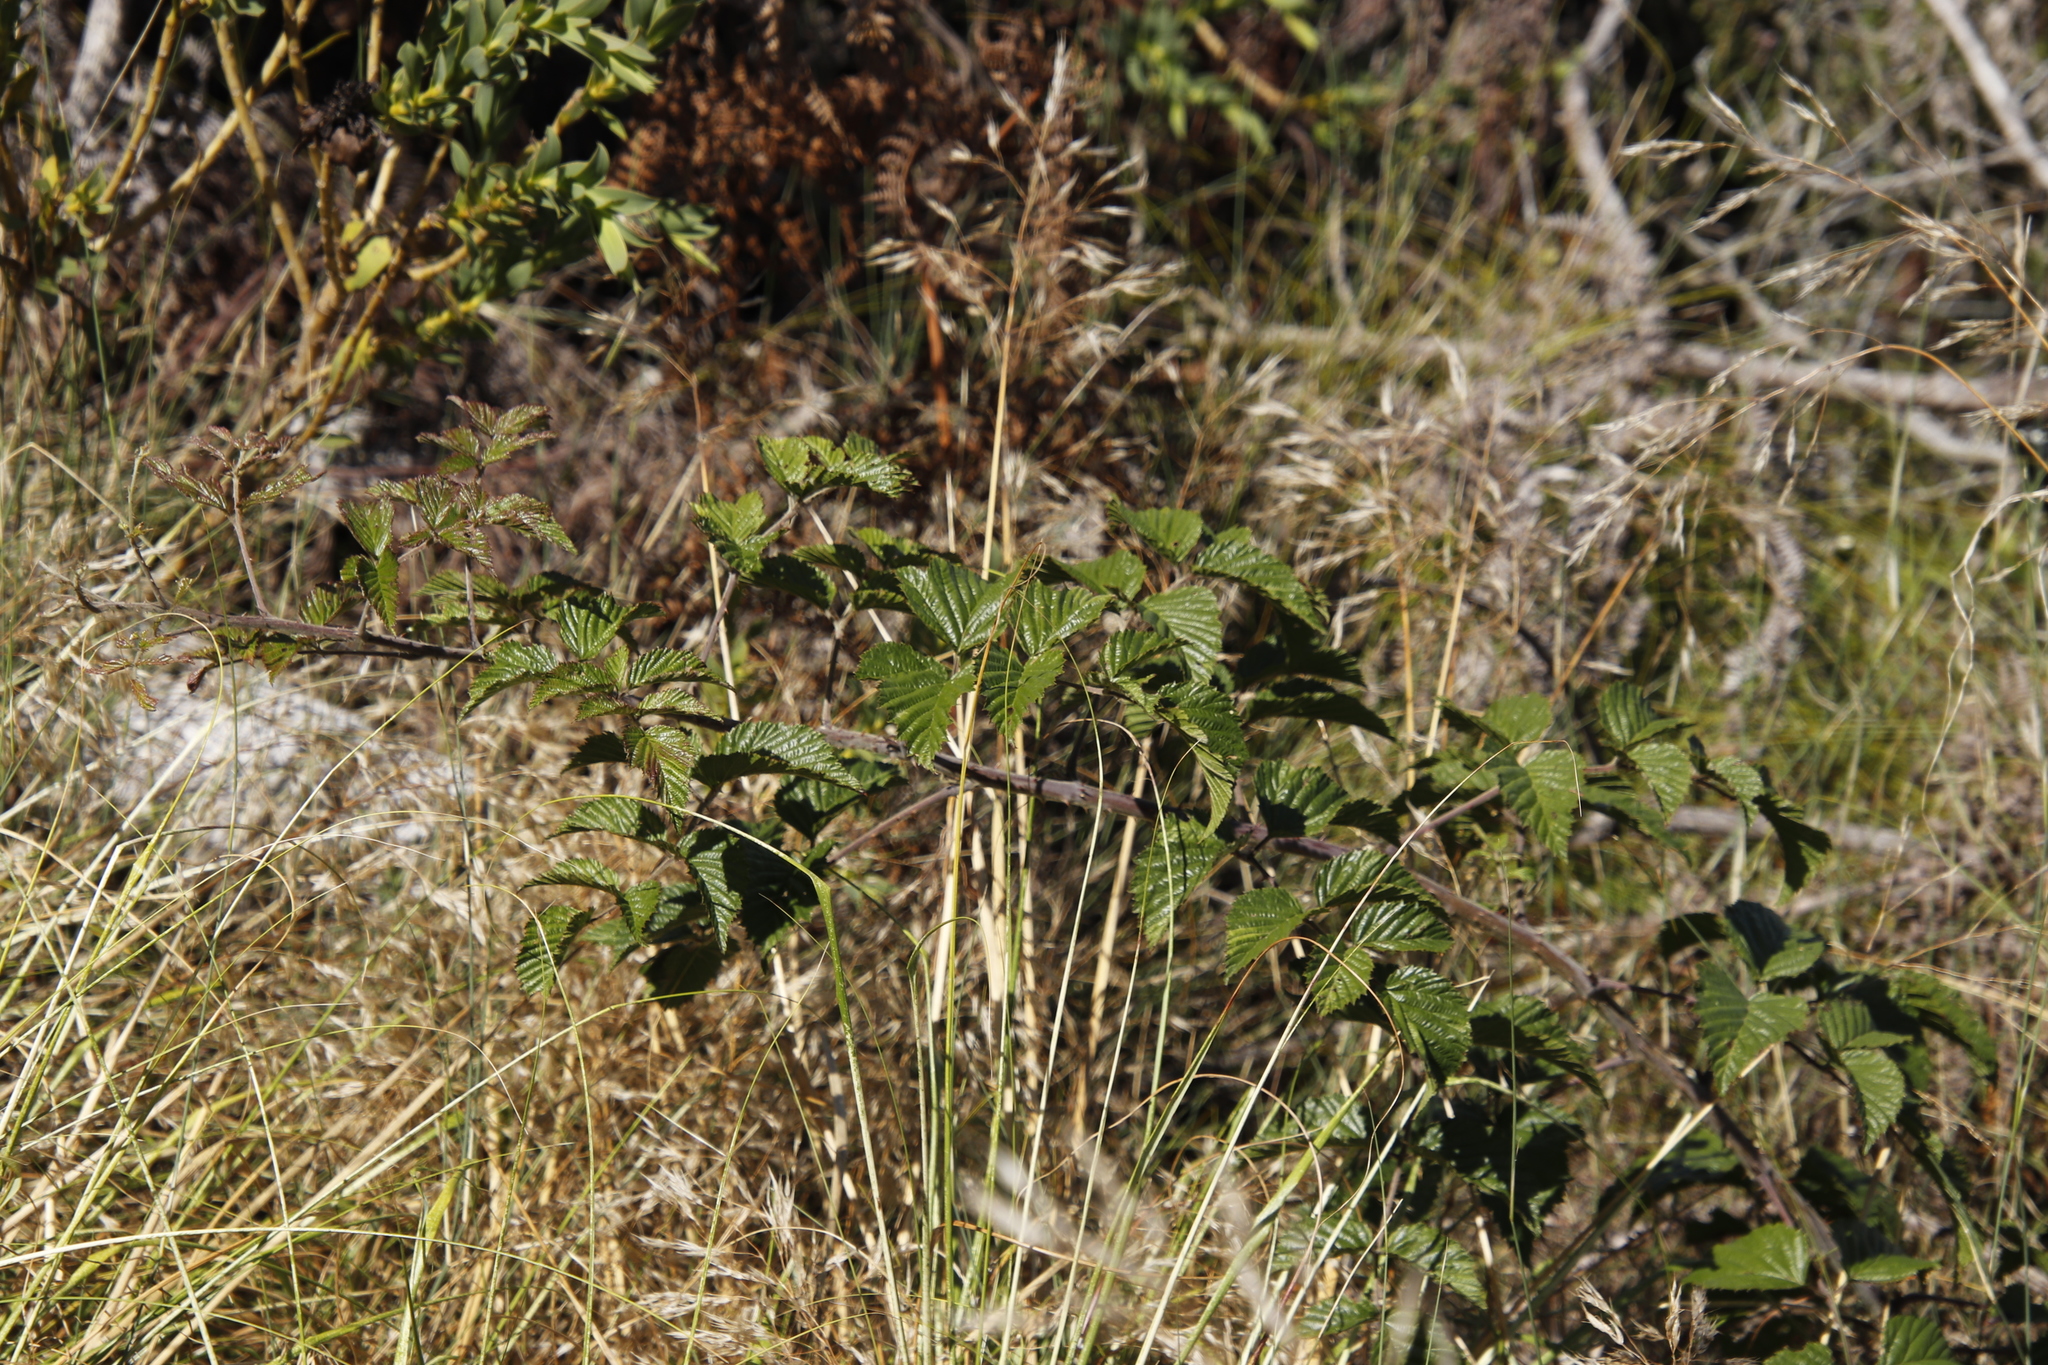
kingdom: Plantae
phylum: Tracheophyta
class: Magnoliopsida
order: Rosales
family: Rosaceae
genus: Rubus
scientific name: Rubus pinnatus
